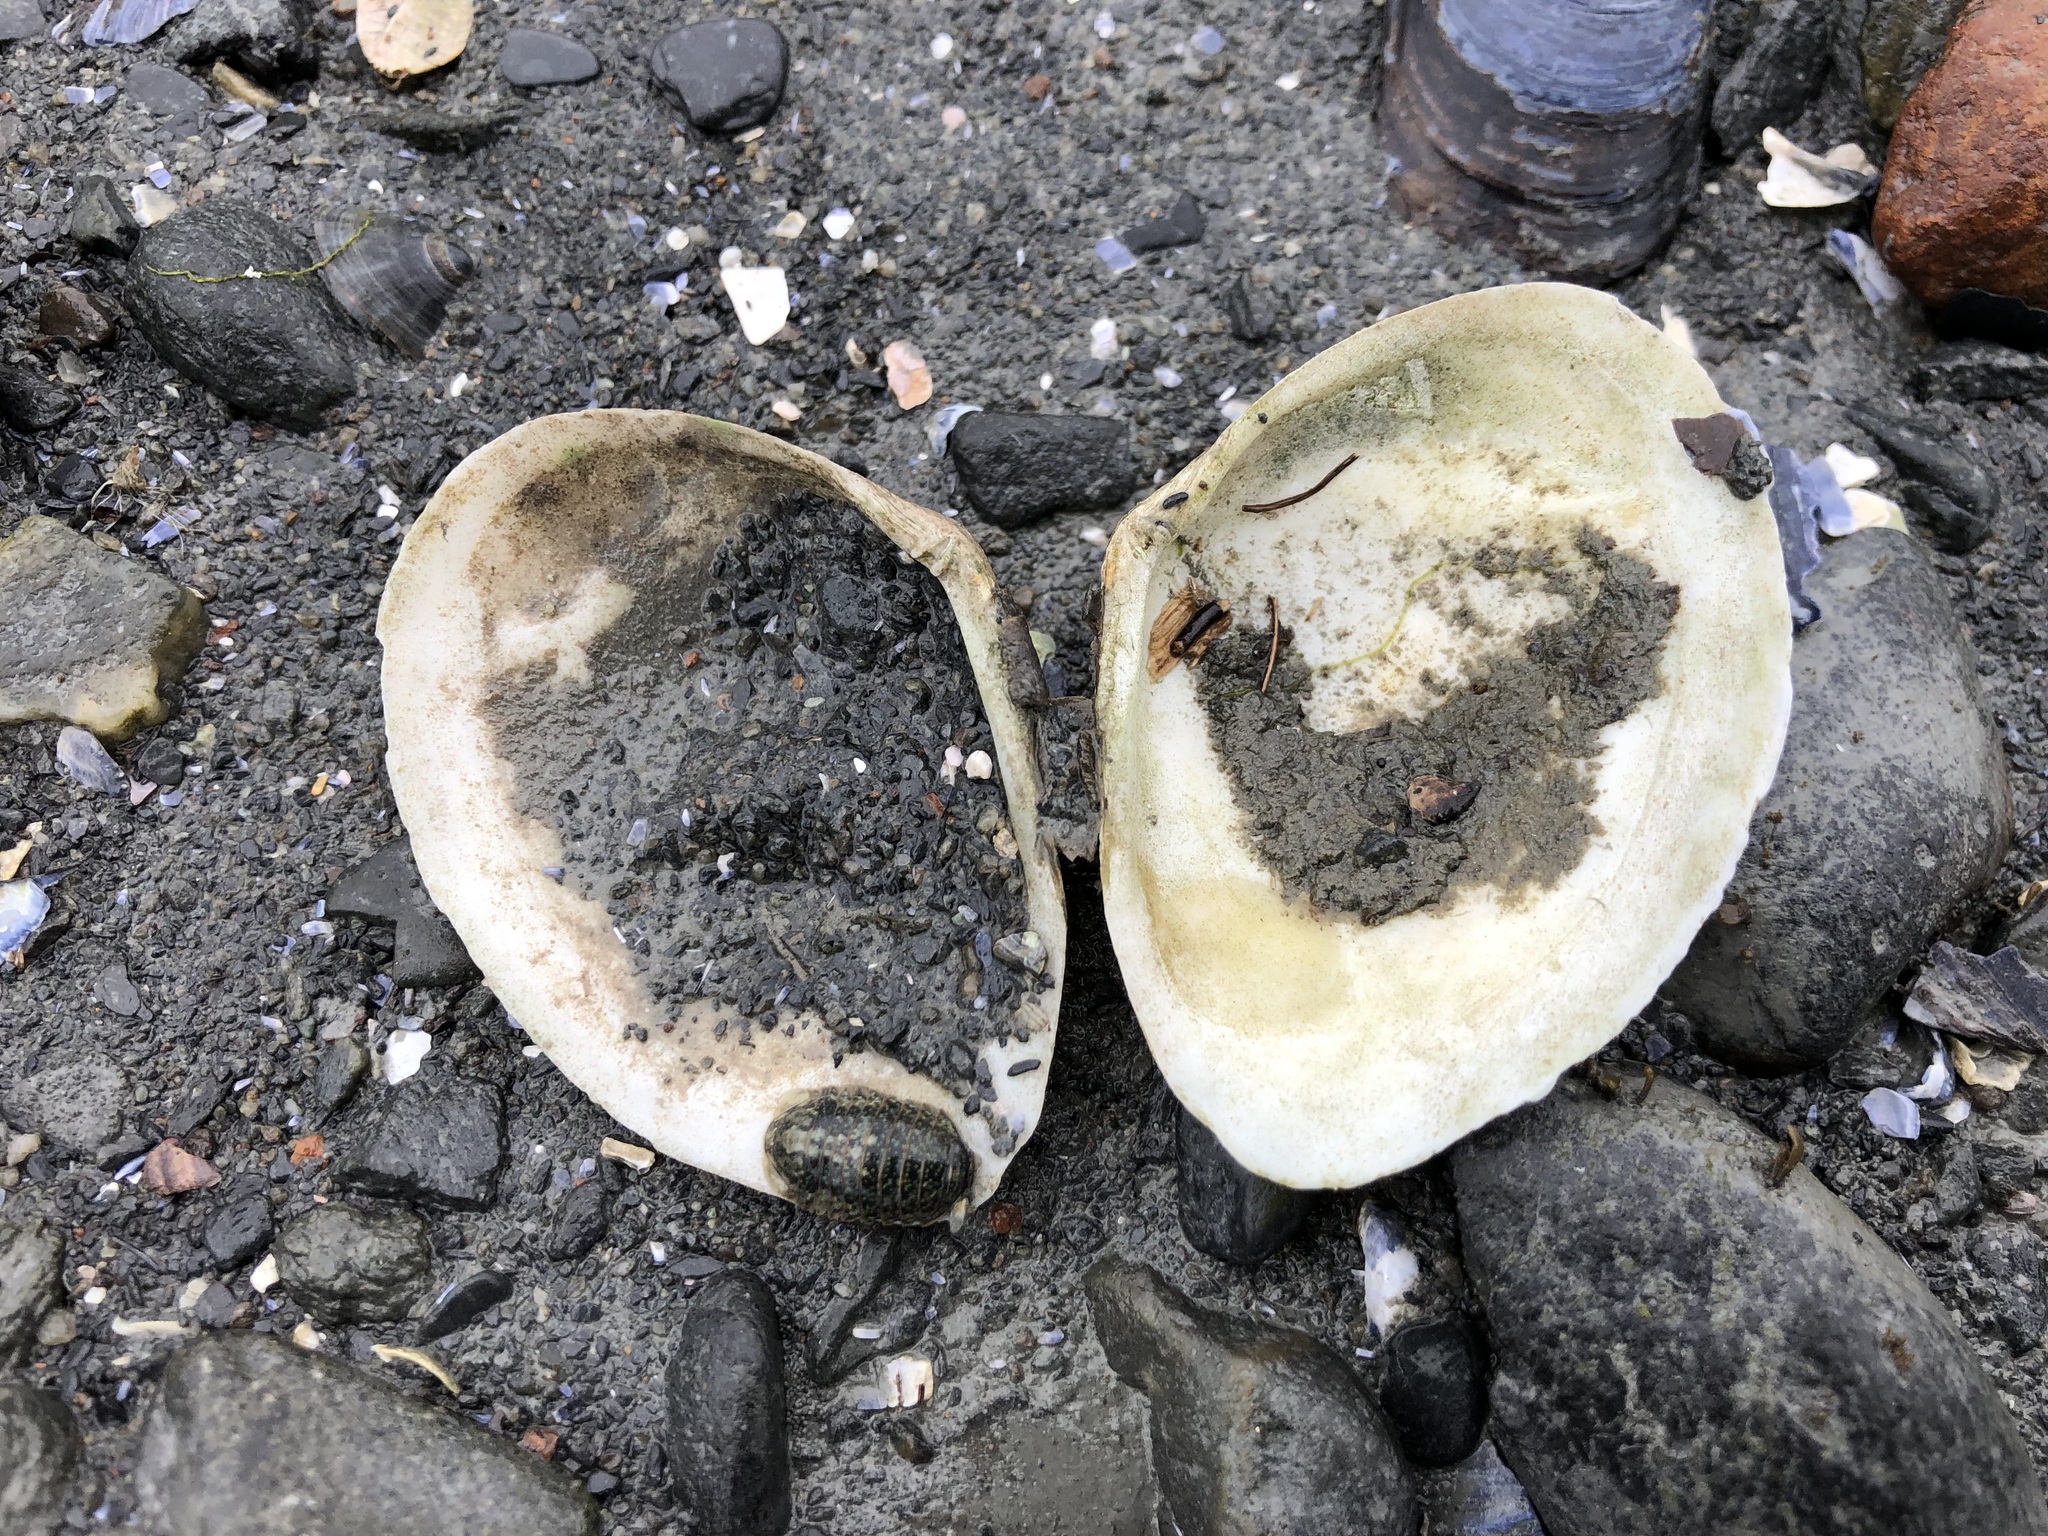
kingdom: Animalia
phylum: Mollusca
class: Bivalvia
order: Cardiida
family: Tellinidae
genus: Macoma
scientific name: Macoma inquinata
